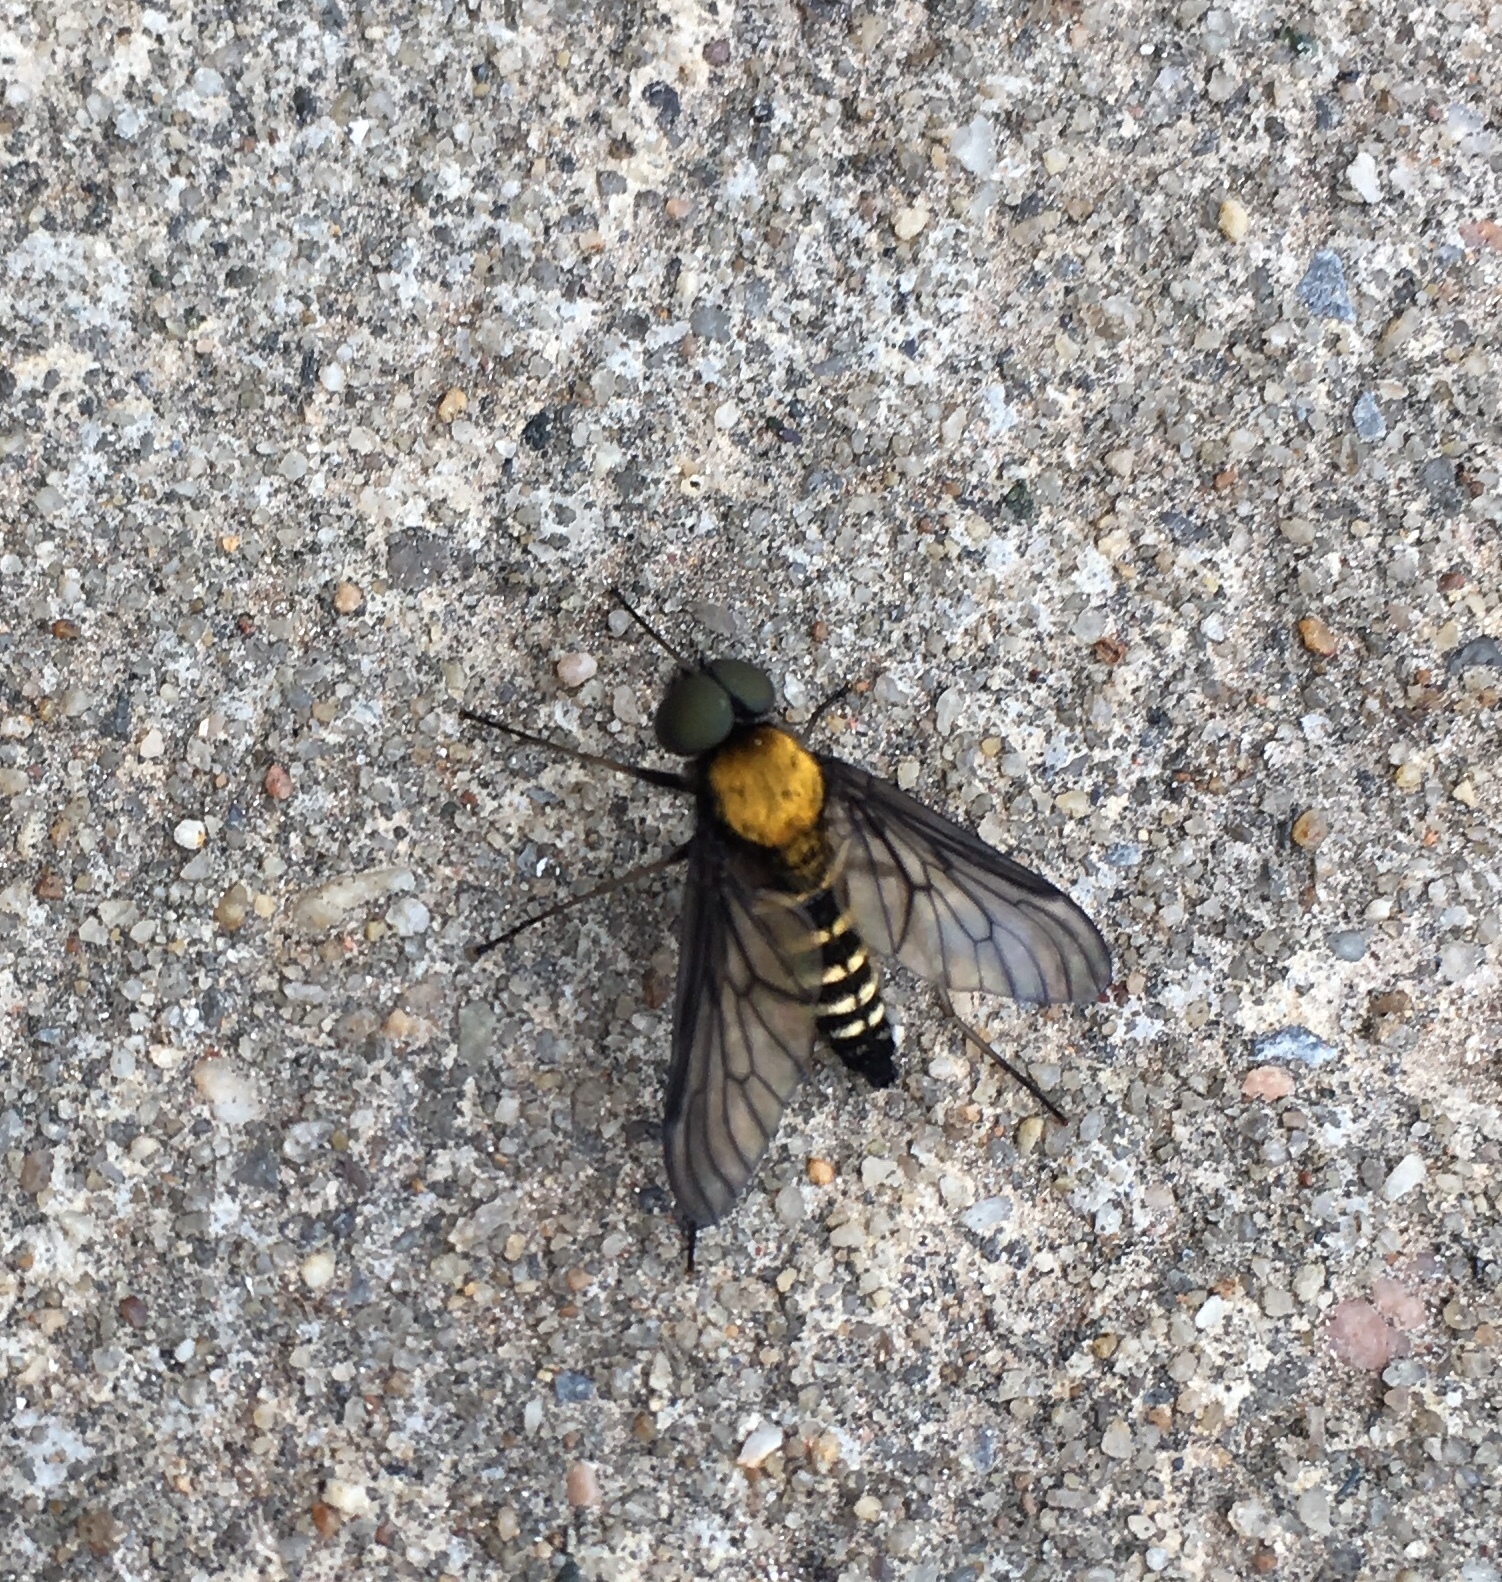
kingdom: Animalia
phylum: Arthropoda
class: Insecta
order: Diptera
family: Rhagionidae
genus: Chrysopilus
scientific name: Chrysopilus thoracicus
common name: Golden-backed snipe fly
